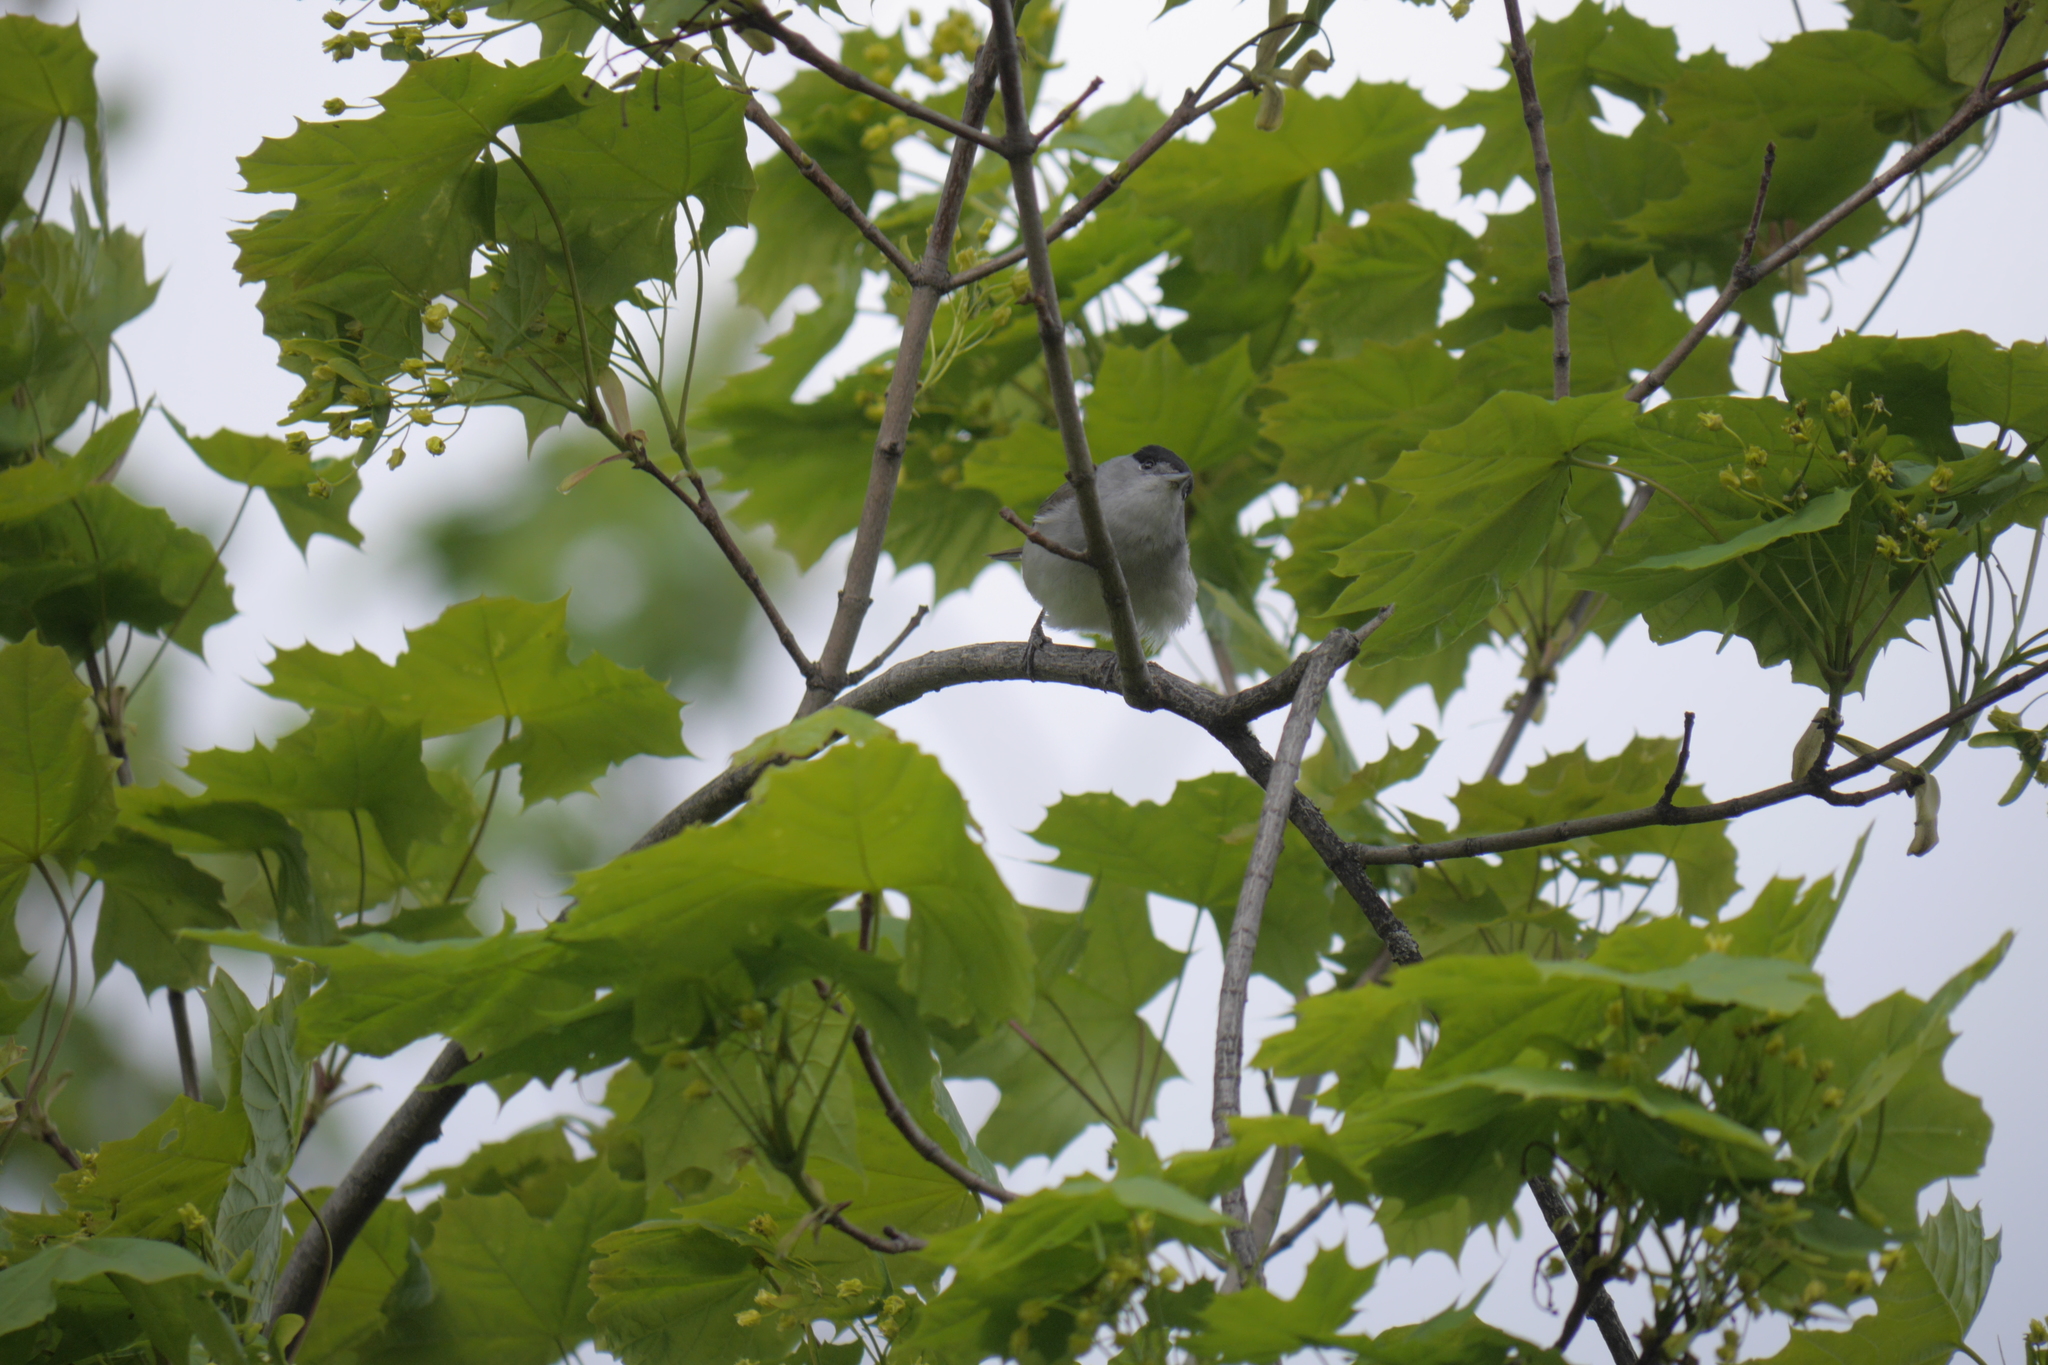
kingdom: Animalia
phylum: Chordata
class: Aves
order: Passeriformes
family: Sylviidae
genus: Sylvia
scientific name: Sylvia atricapilla
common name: Eurasian blackcap
